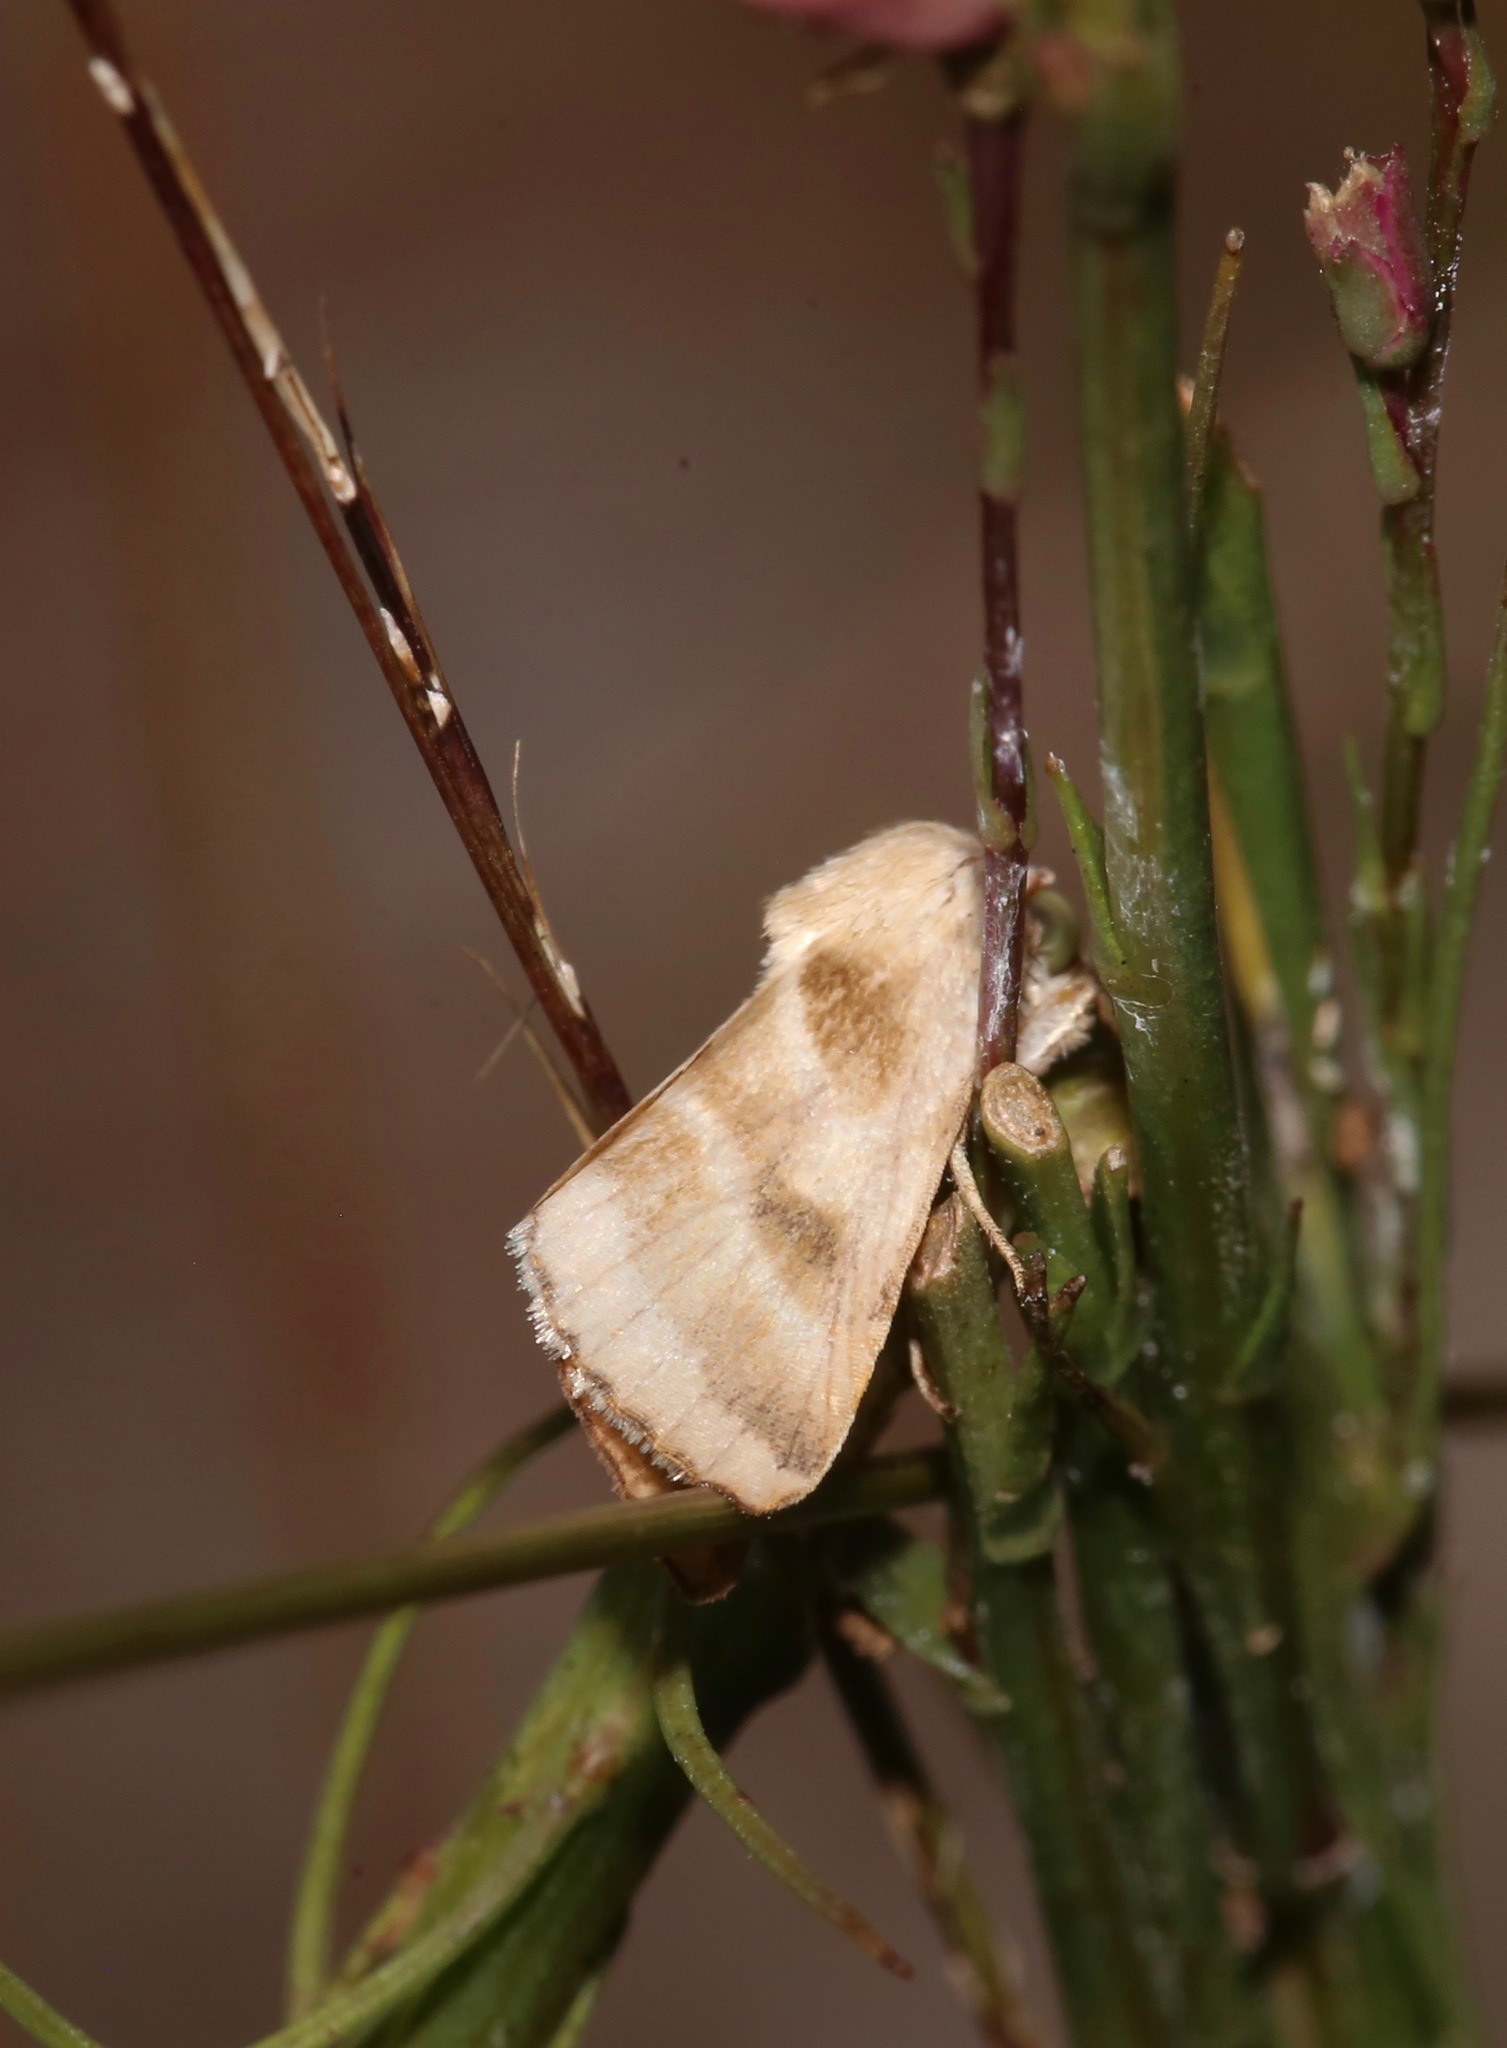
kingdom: Animalia
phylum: Arthropoda
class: Insecta
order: Lepidoptera
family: Noctuidae
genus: Schinia
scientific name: Schinia trifascia
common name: Three-lined flower moth
